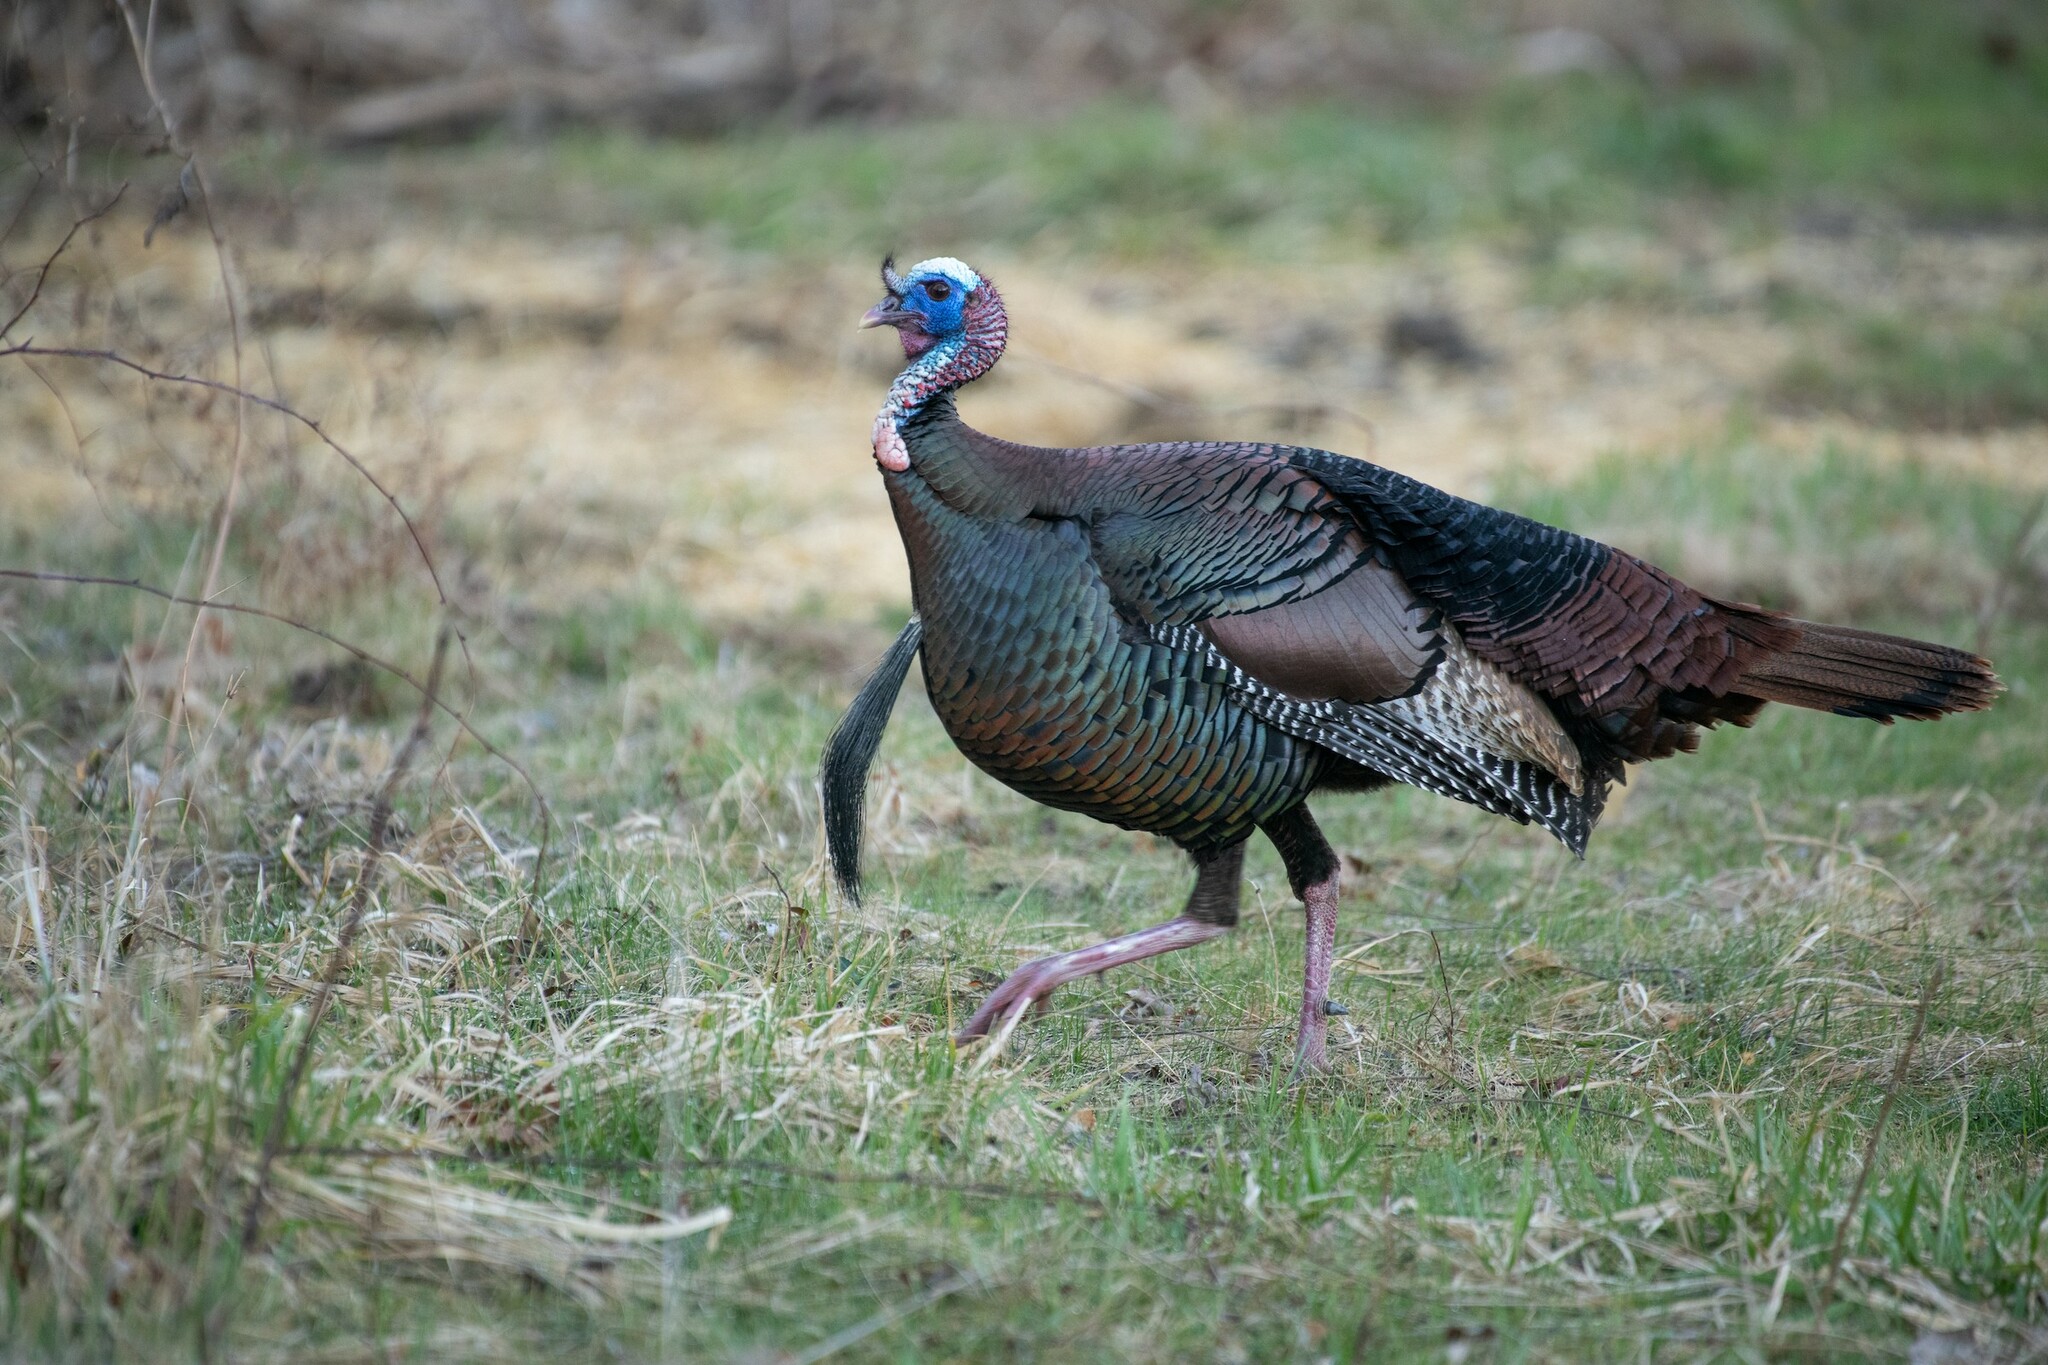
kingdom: Animalia
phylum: Chordata
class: Aves
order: Galliformes
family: Phasianidae
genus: Meleagris
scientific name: Meleagris gallopavo
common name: Wild turkey
